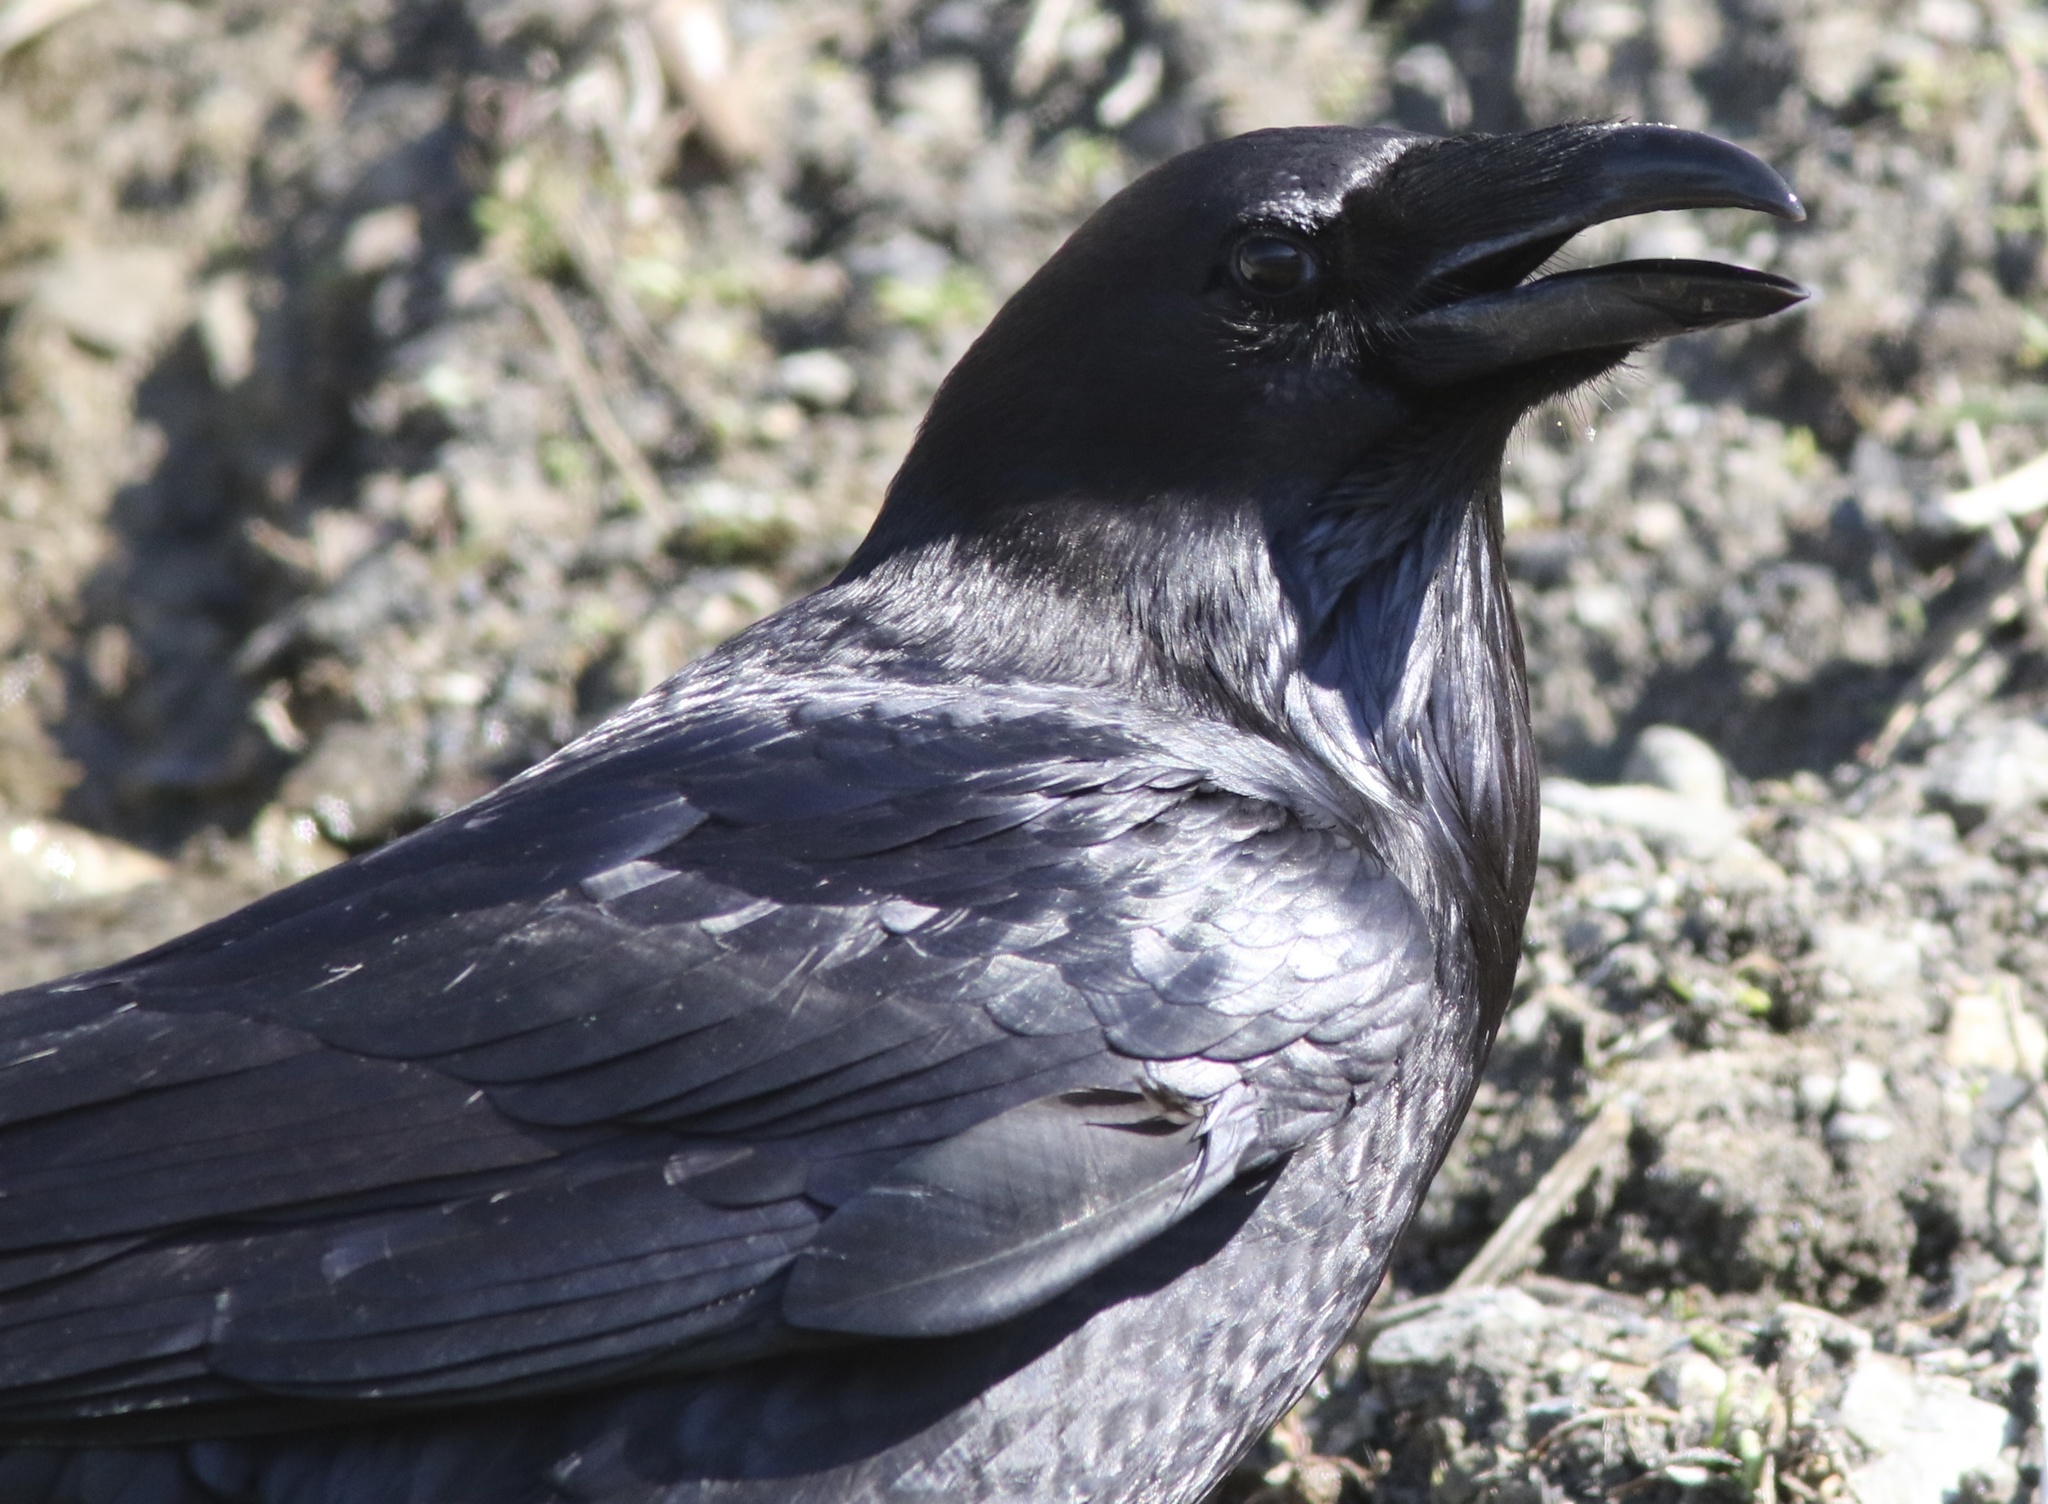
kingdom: Animalia
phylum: Chordata
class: Aves
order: Passeriformes
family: Corvidae
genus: Corvus
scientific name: Corvus corax
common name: Common raven
